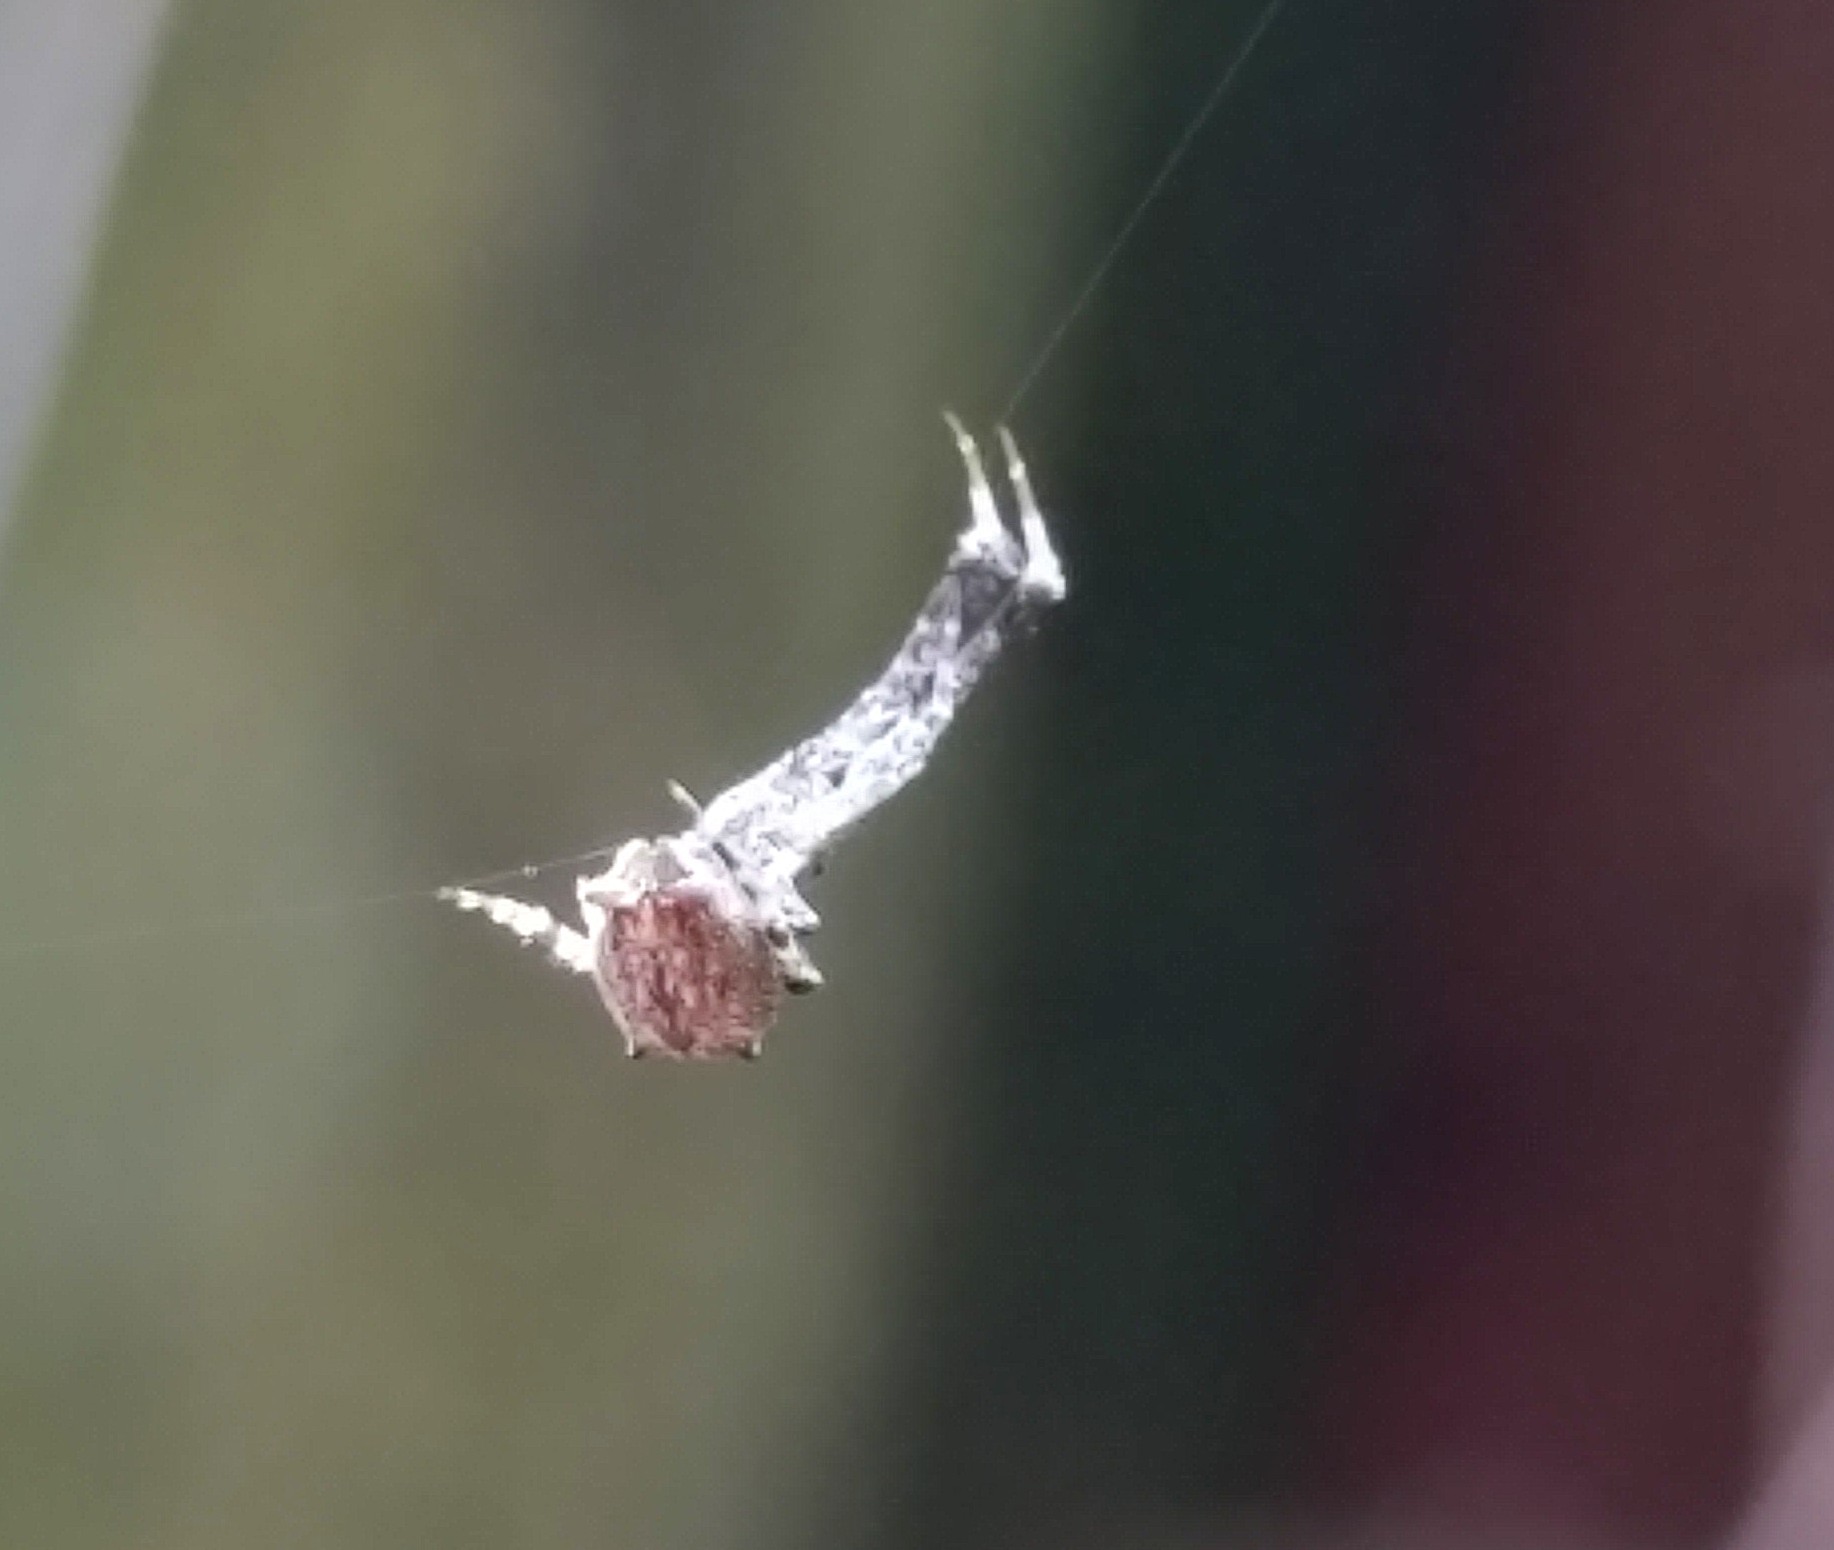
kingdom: Animalia
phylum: Arthropoda
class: Arachnida
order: Araneae
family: Uloboridae
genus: Uloborus
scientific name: Uloborus glomosus
